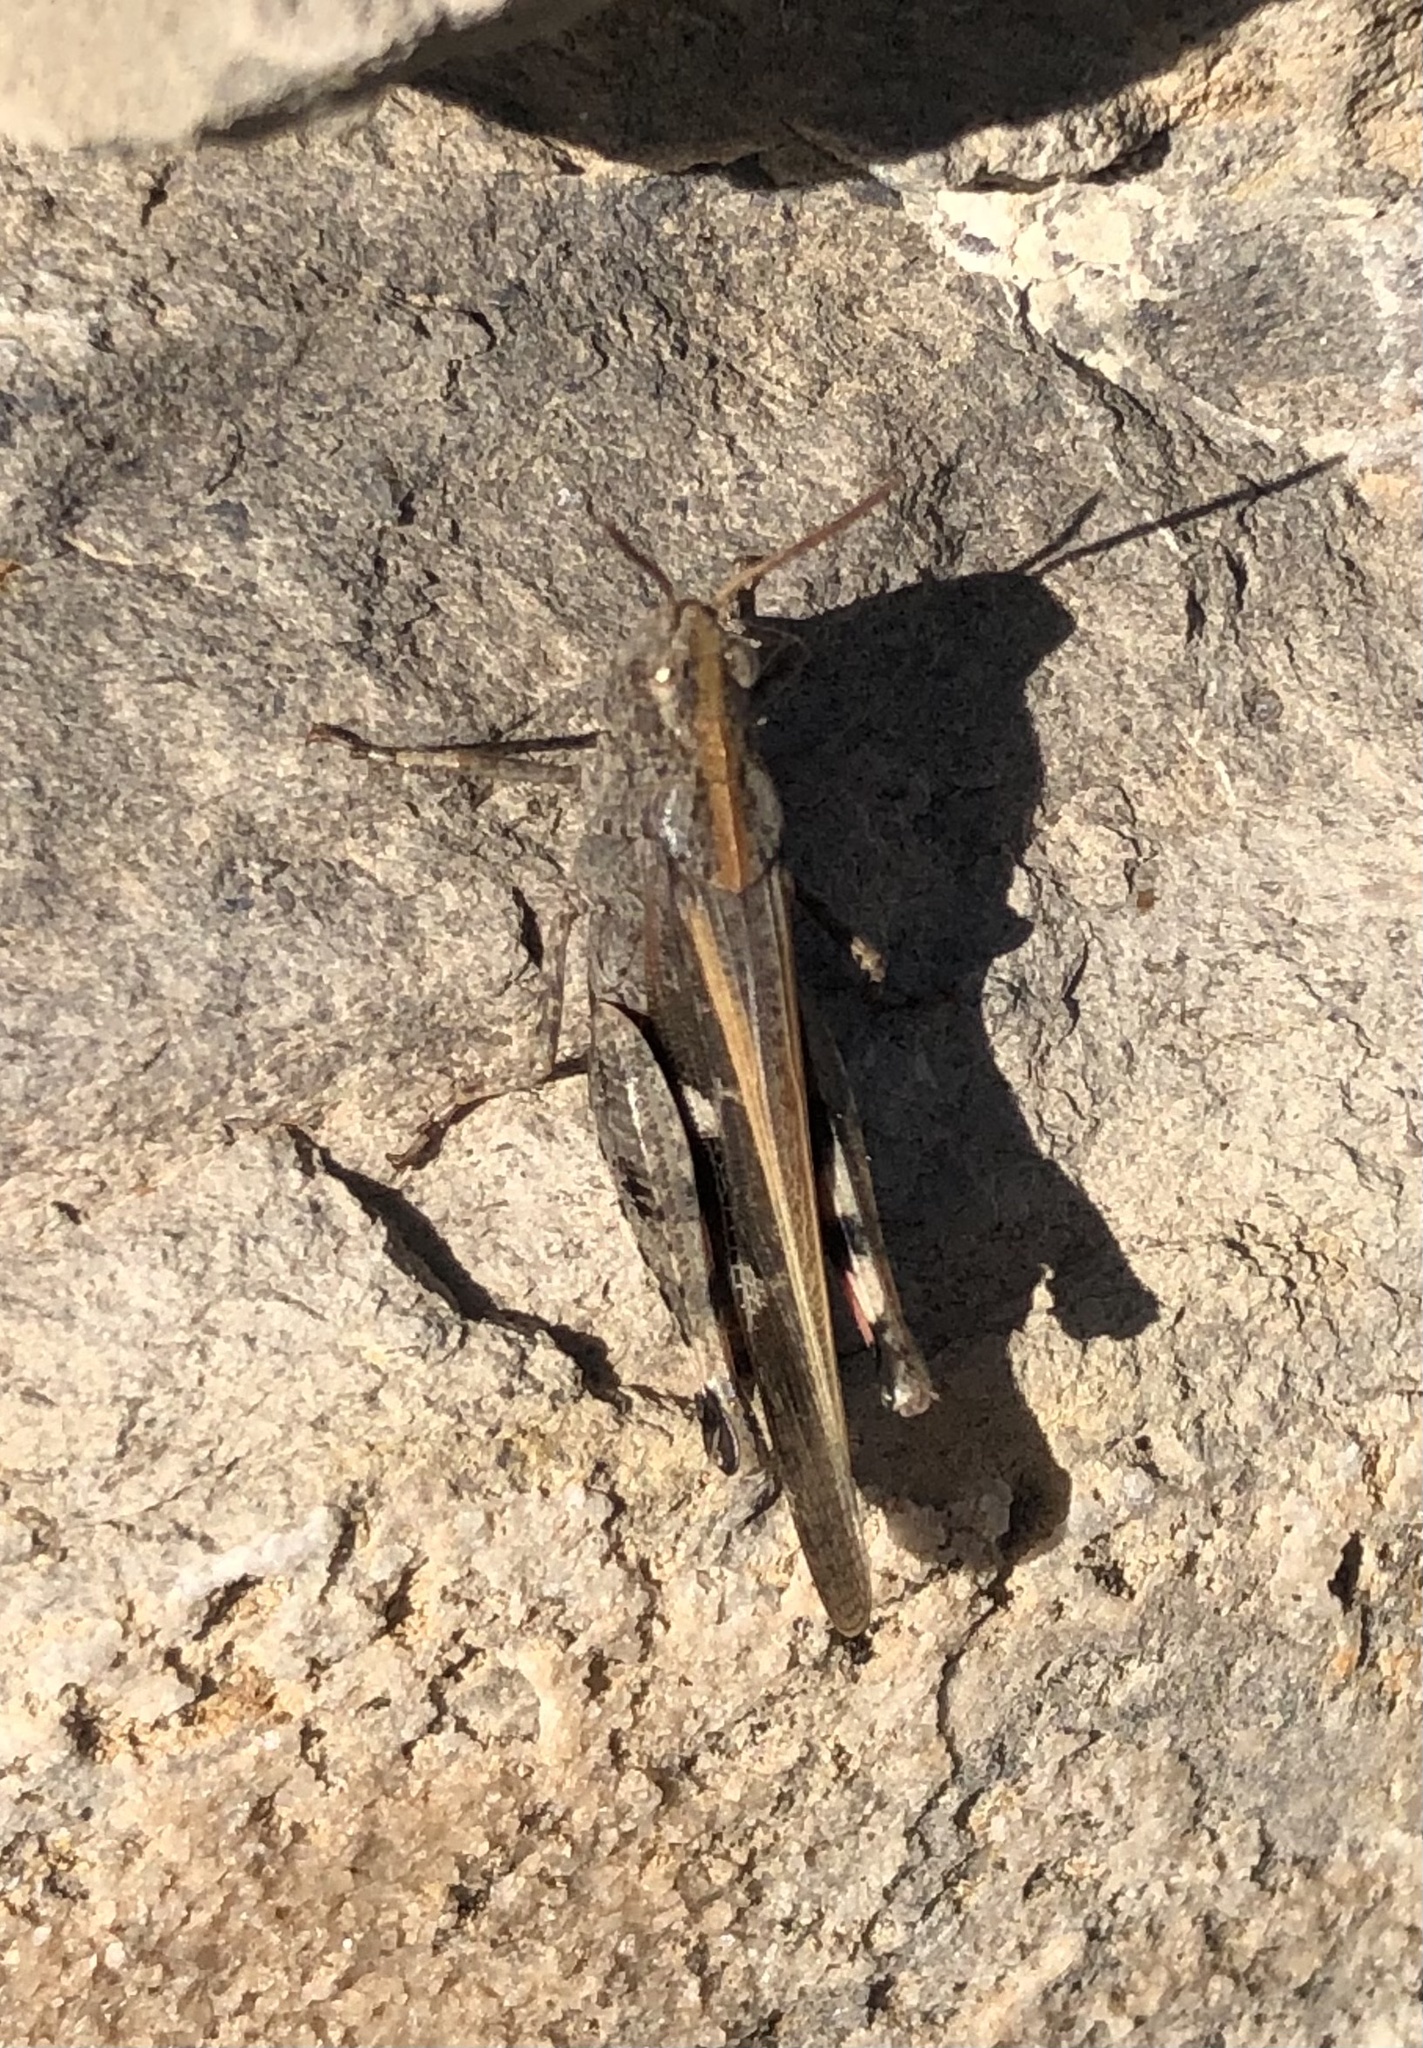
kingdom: Animalia
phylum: Arthropoda
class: Insecta
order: Orthoptera
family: Acrididae
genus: Aiolopus
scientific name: Aiolopus strepens
